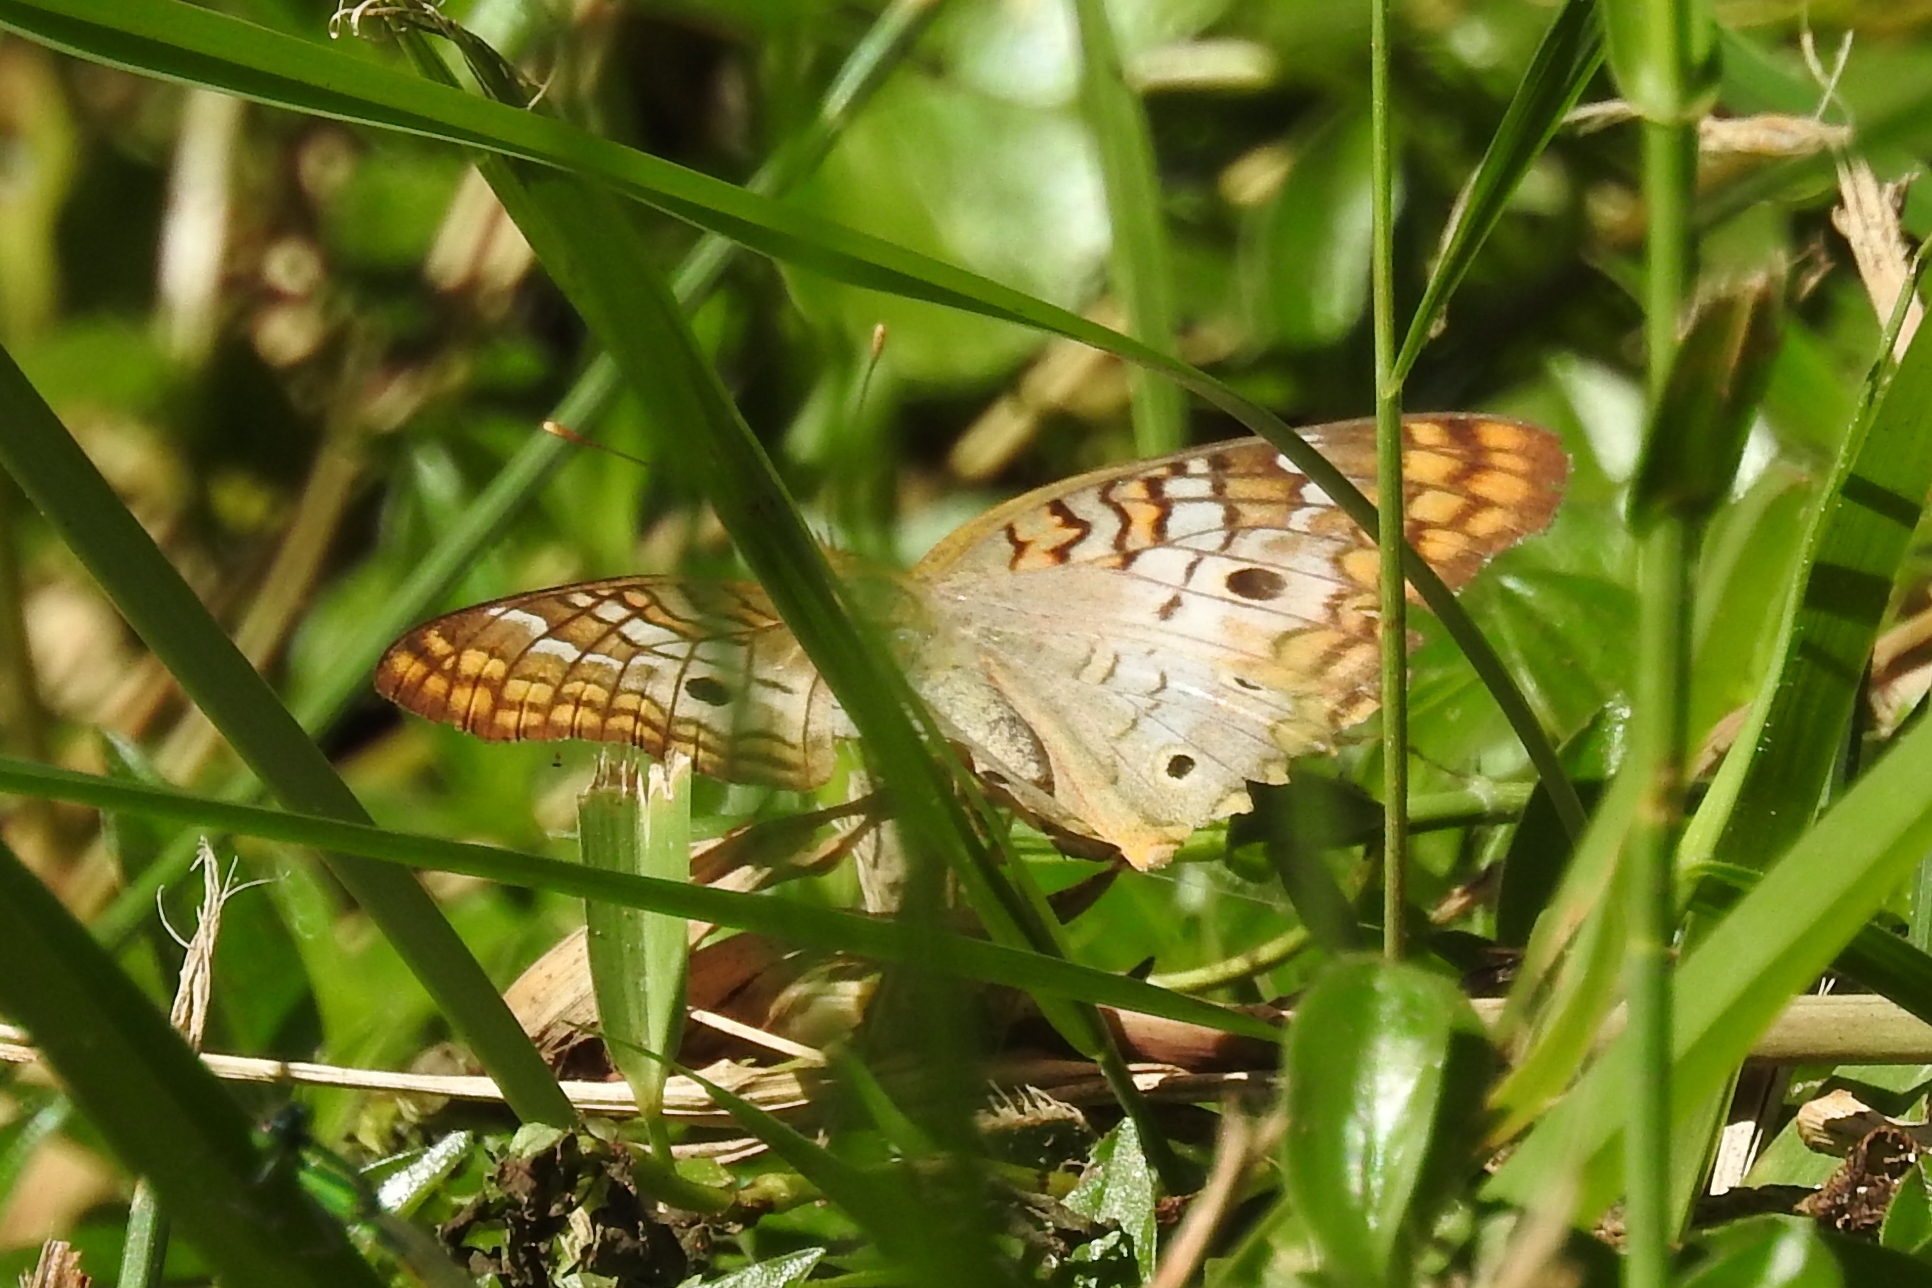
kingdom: Animalia
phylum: Arthropoda
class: Insecta
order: Lepidoptera
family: Nymphalidae
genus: Anartia
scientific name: Anartia jatrophae
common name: White peacock
